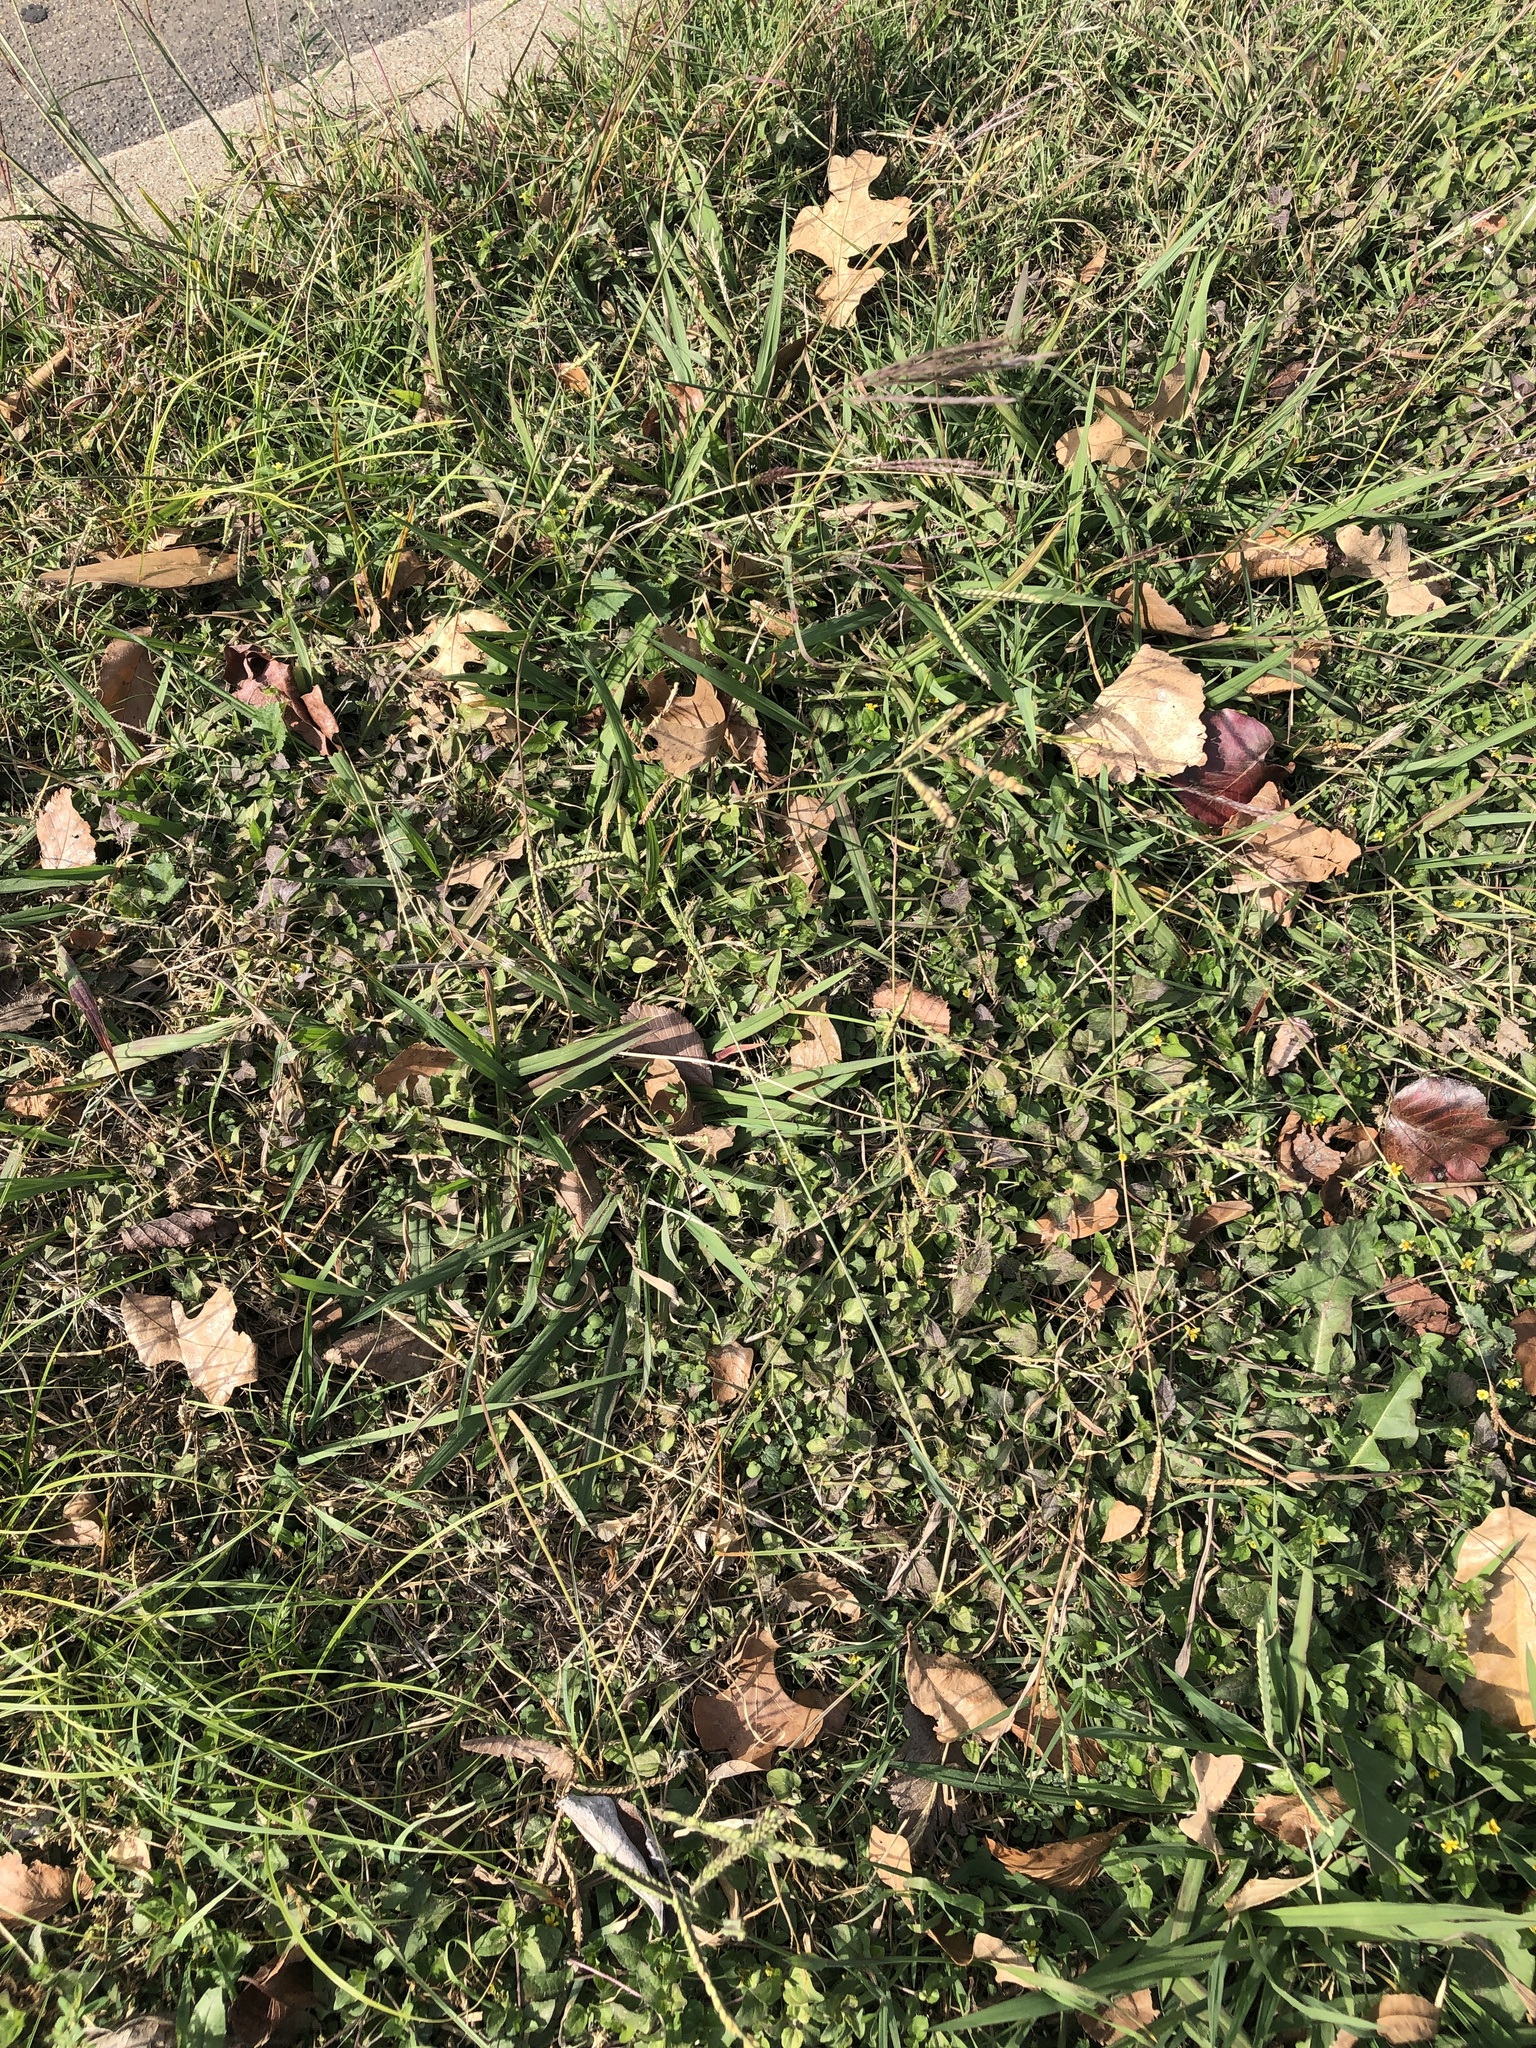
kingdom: Plantae
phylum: Tracheophyta
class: Liliopsida
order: Poales
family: Poaceae
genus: Paspalum
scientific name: Paspalum dilatatum
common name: Dallisgrass
